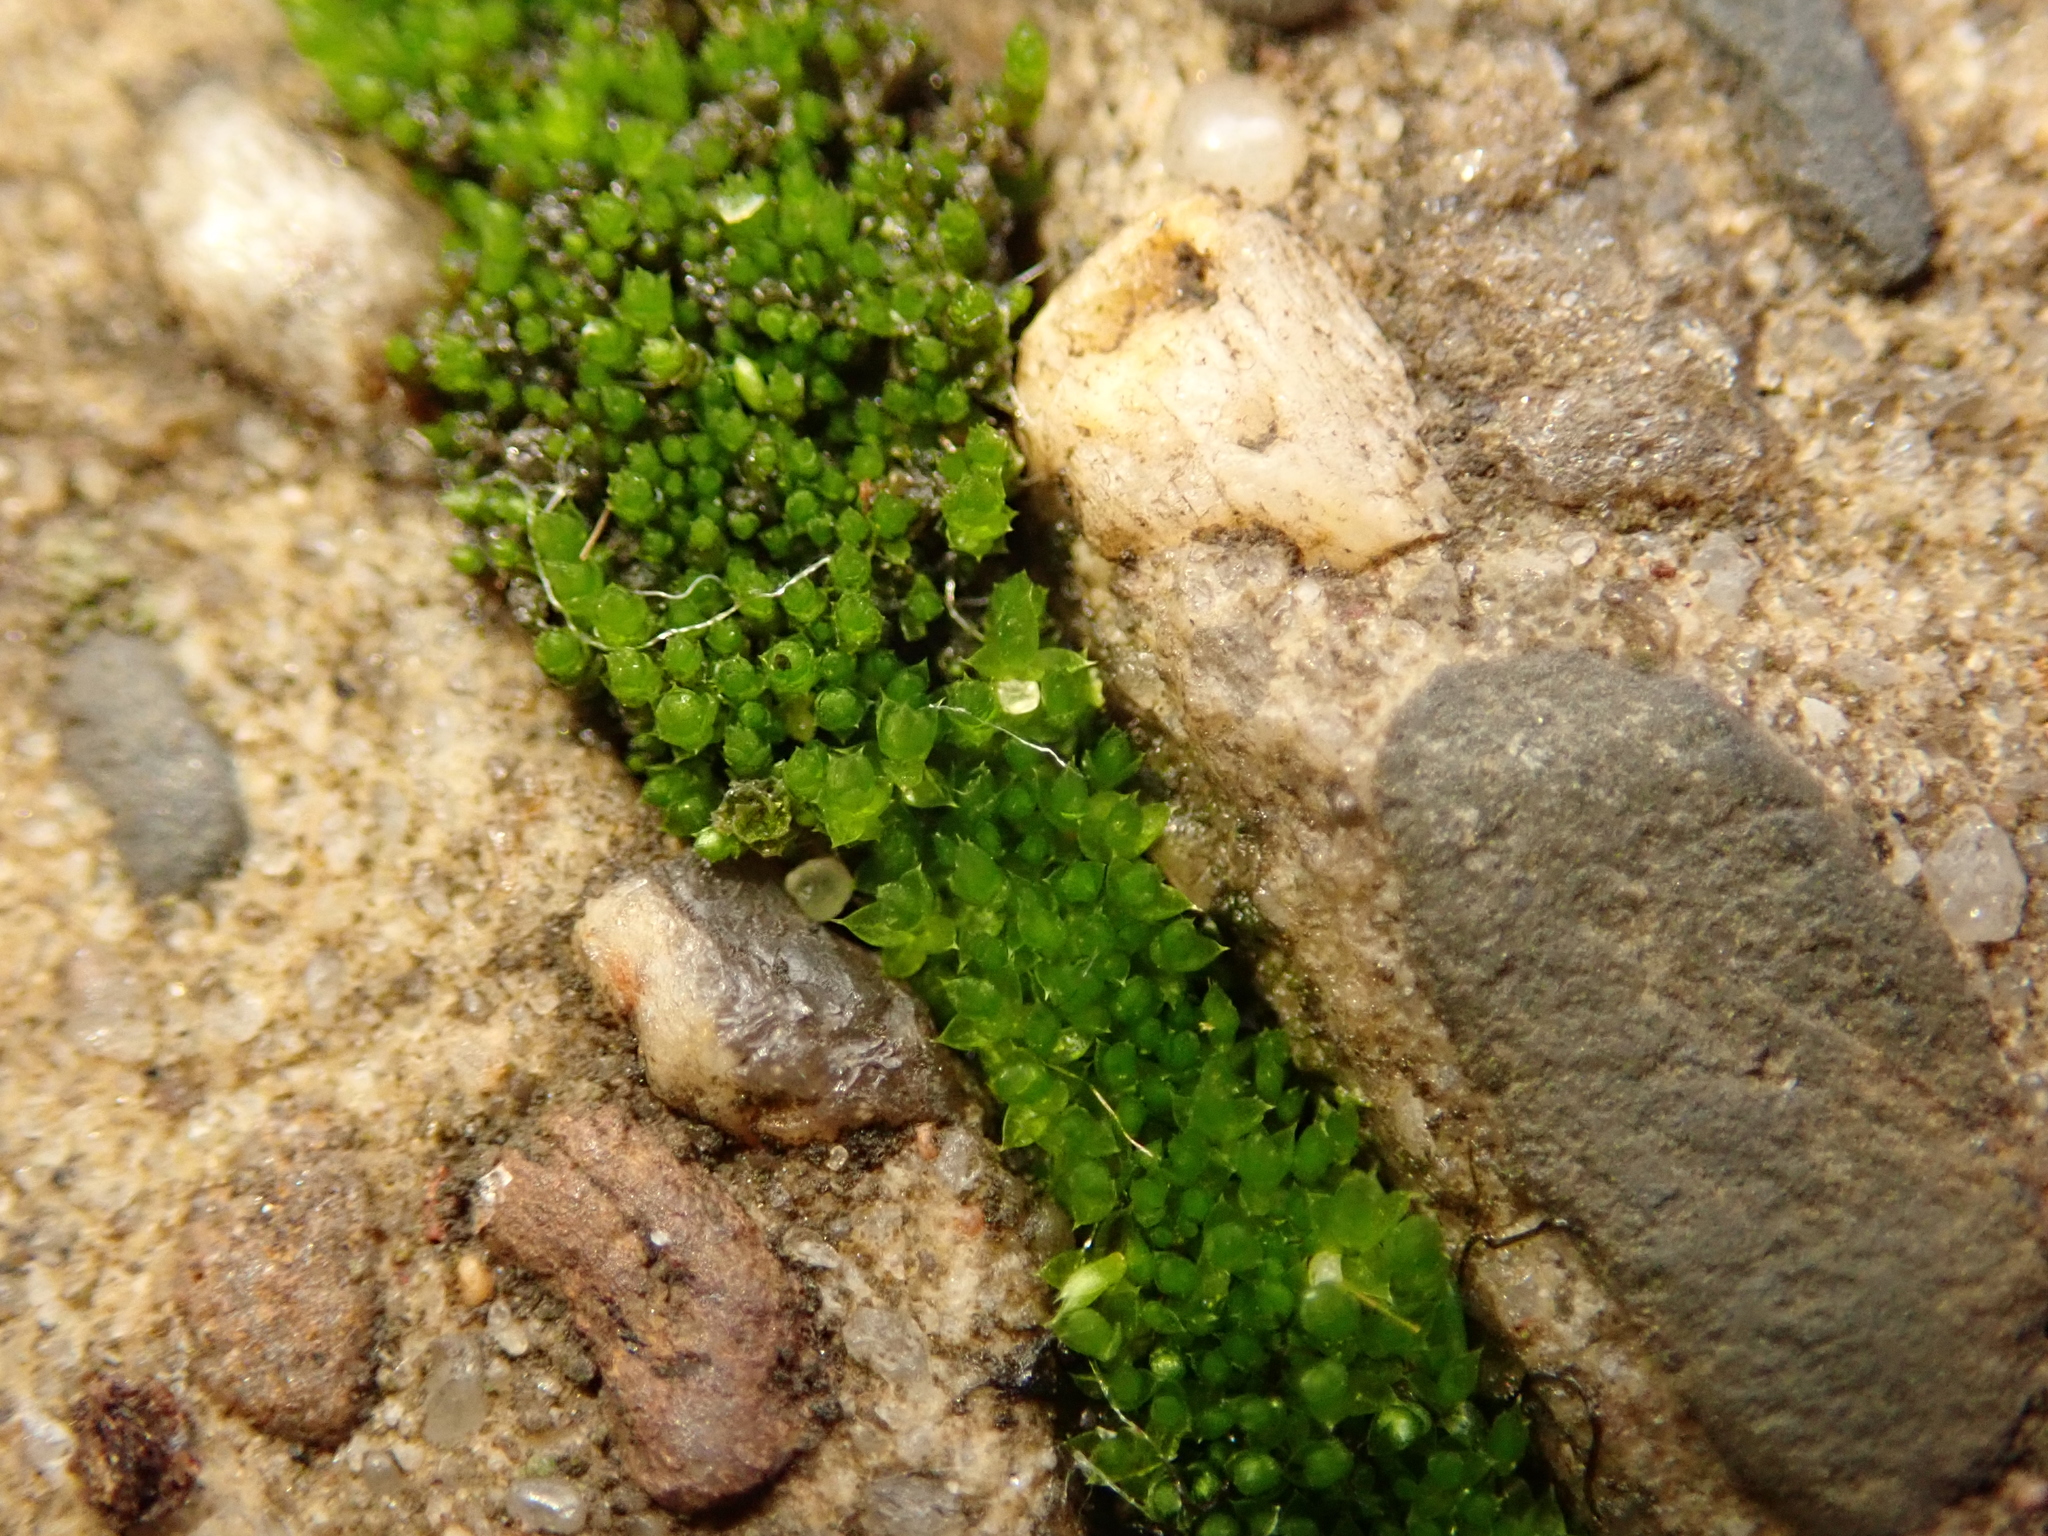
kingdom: Plantae
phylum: Bryophyta
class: Bryopsida
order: Bryales
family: Bryaceae
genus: Bryum
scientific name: Bryum argenteum
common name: Silver-moss
